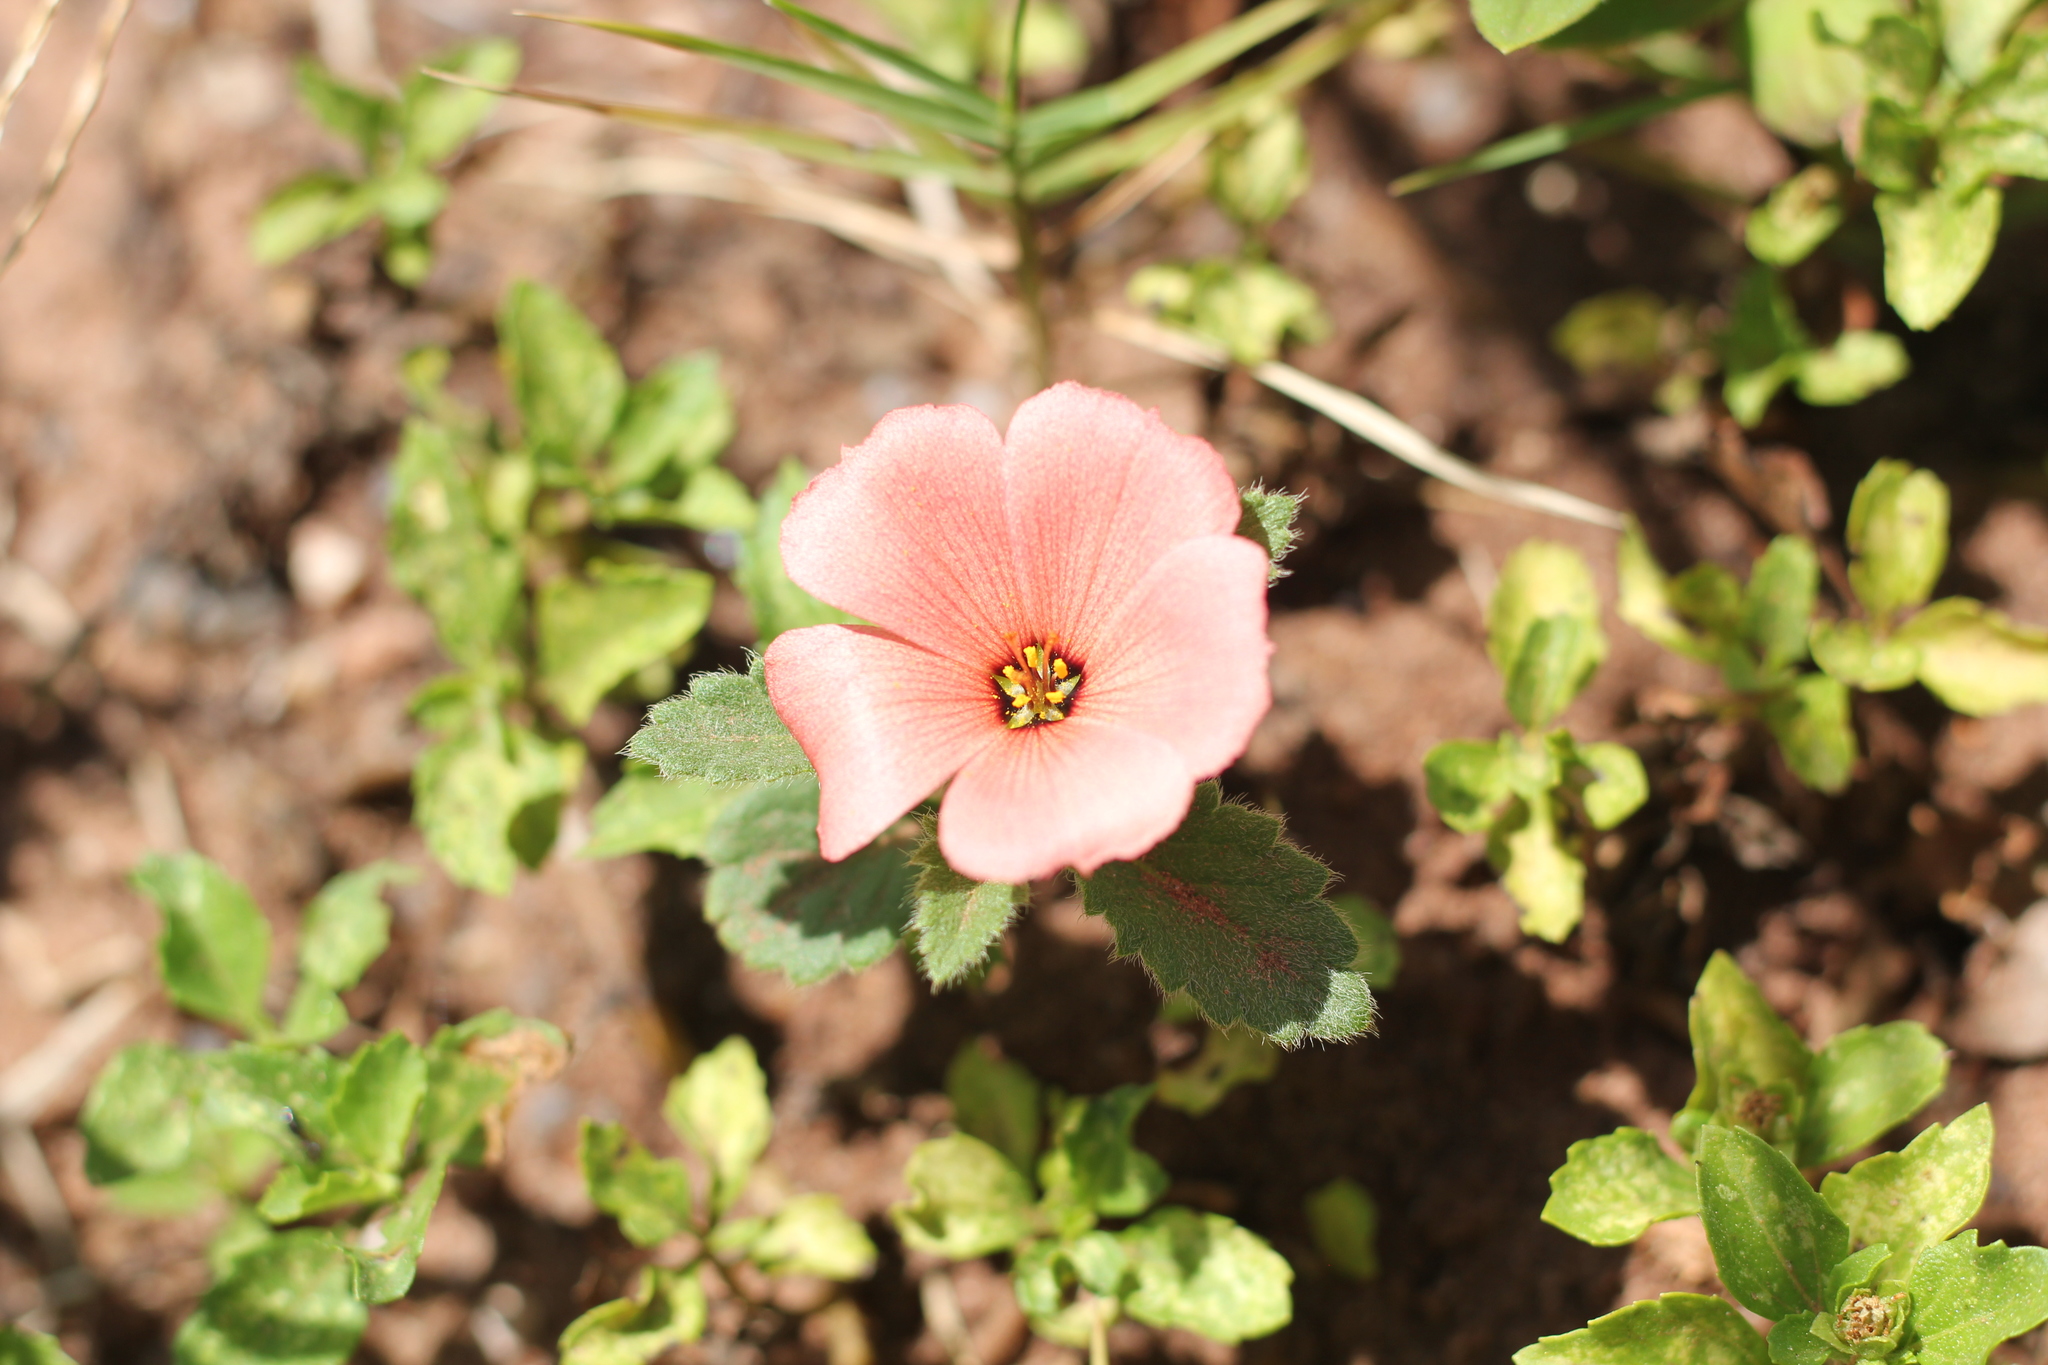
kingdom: Plantae
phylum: Tracheophyta
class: Magnoliopsida
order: Malpighiales
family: Turneraceae
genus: Turnera
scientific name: Turnera sidoides
